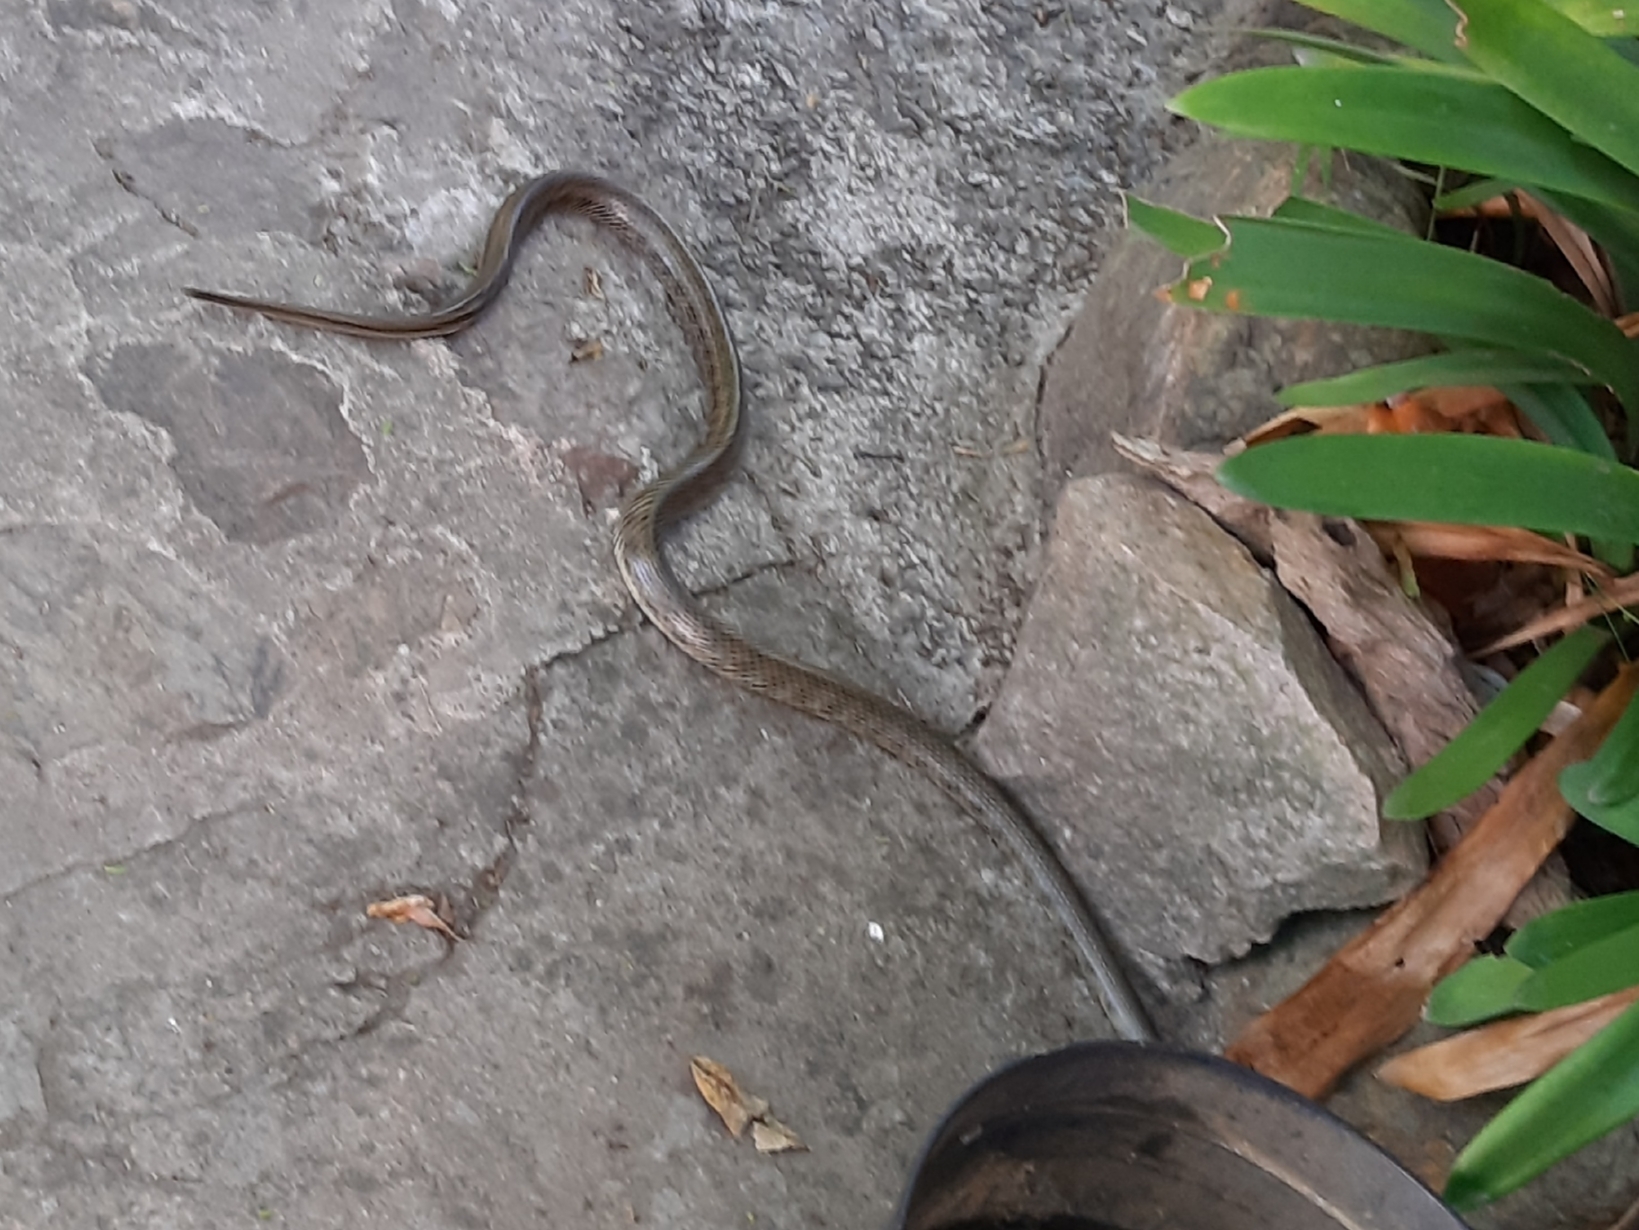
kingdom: Animalia
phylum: Chordata
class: Squamata
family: Colubridae
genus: Erythrolamprus
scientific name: Erythrolamprus semiaureus
